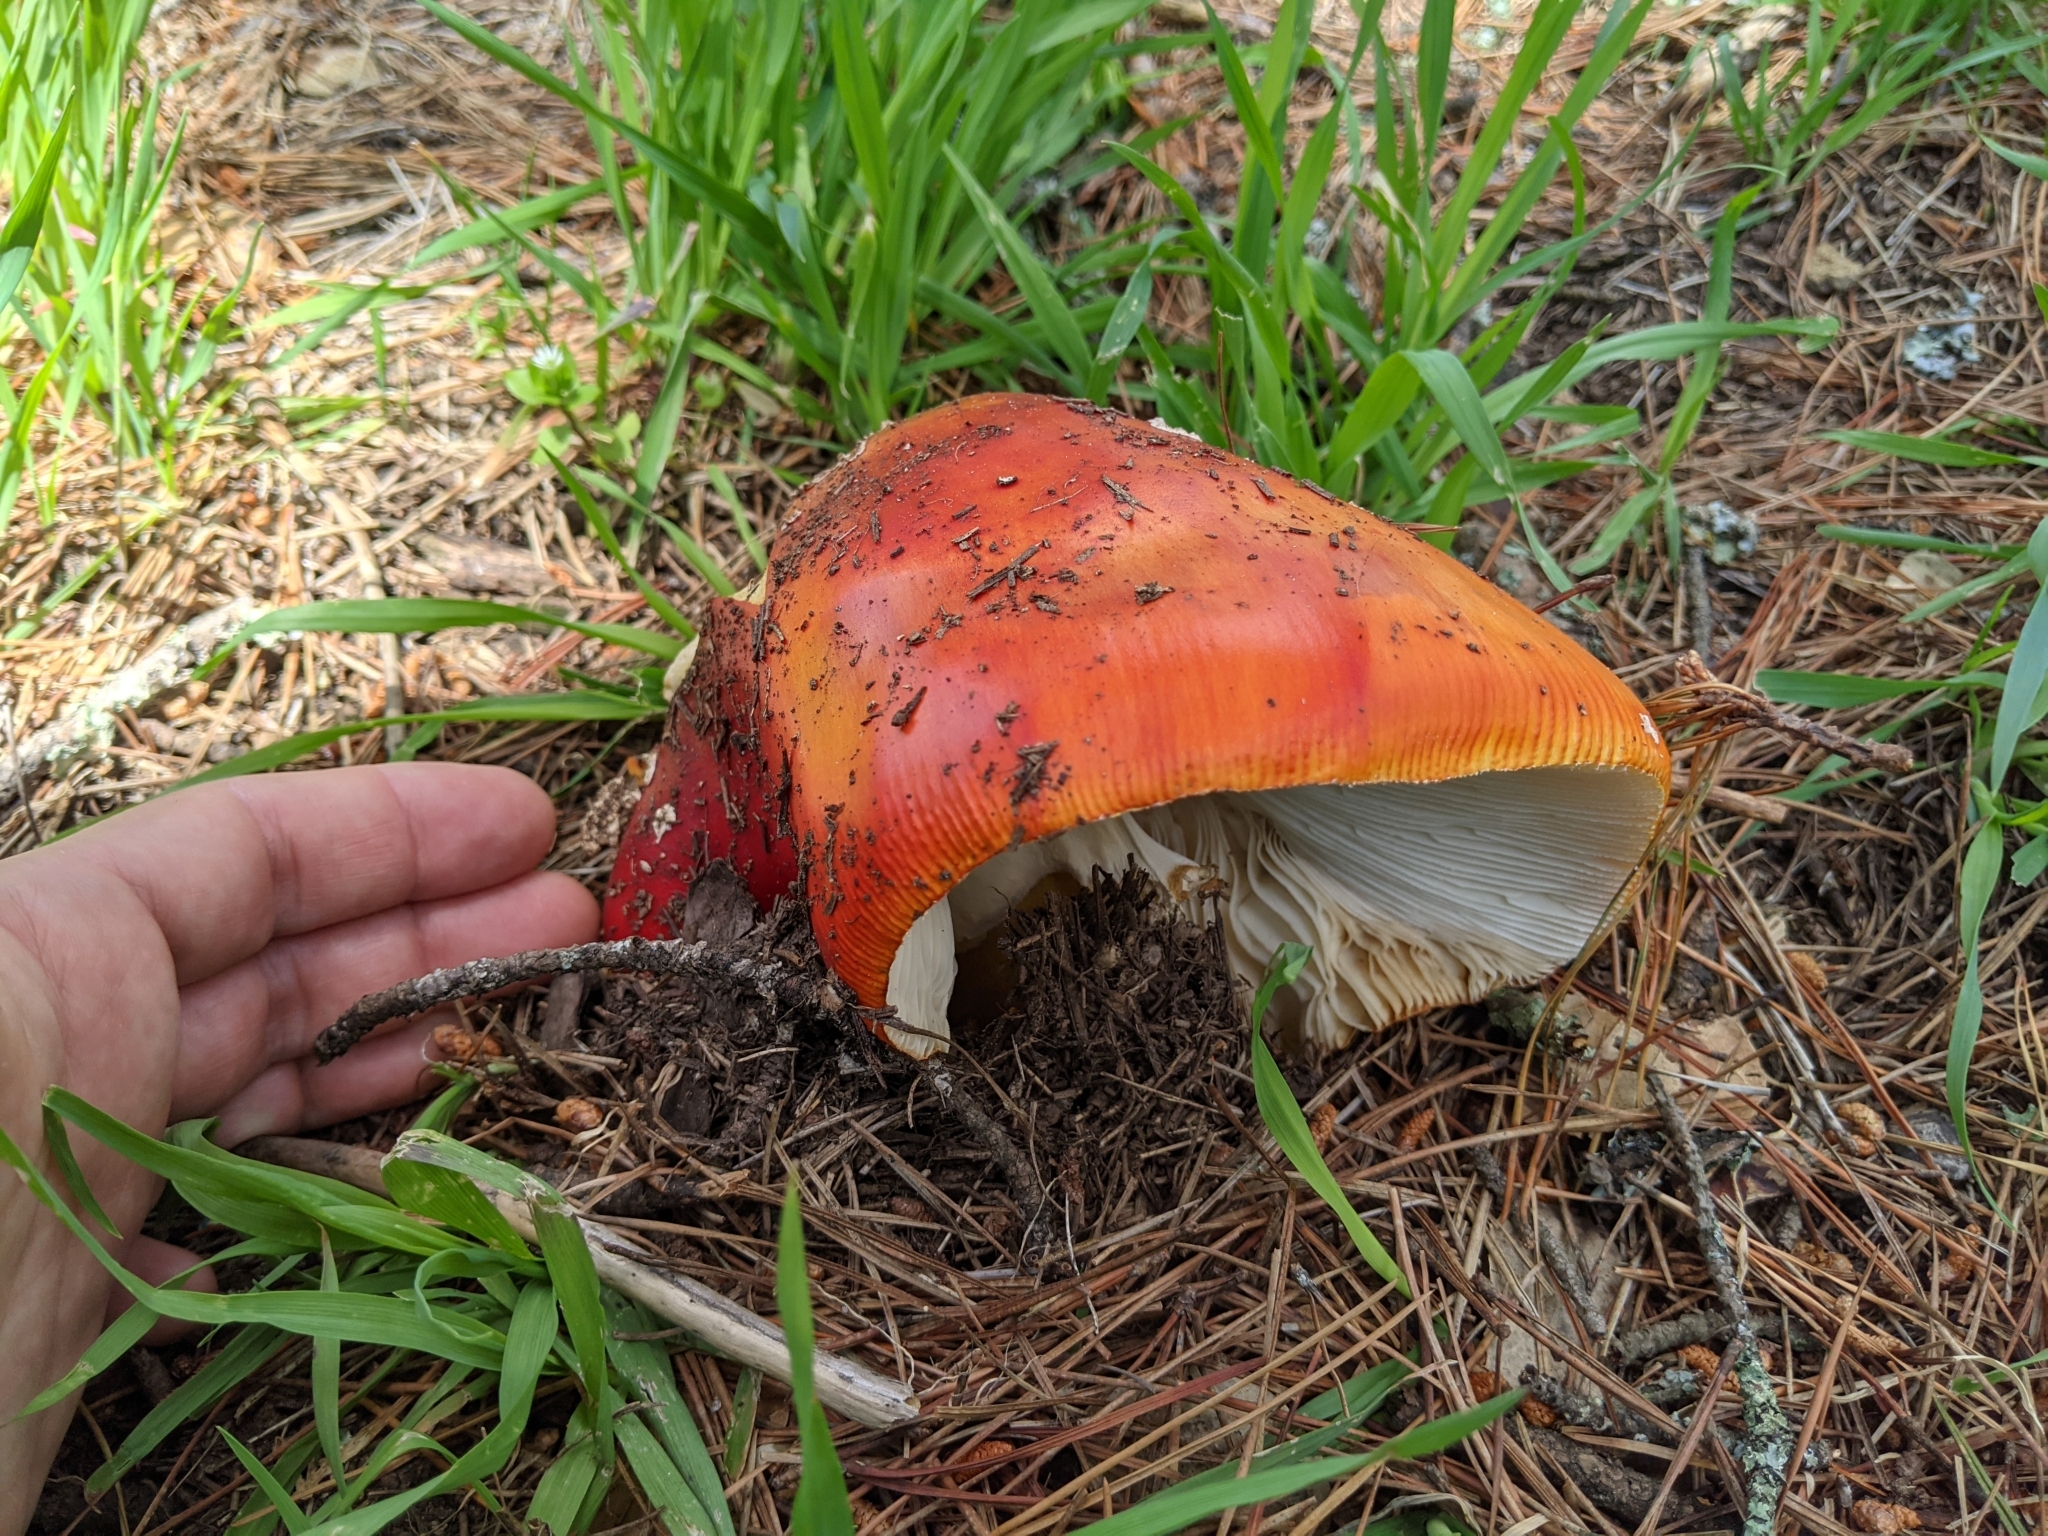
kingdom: Fungi
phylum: Basidiomycota
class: Agaricomycetes
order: Agaricales
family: Amanitaceae
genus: Amanita
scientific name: Amanita muscaria
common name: Fly agaric
